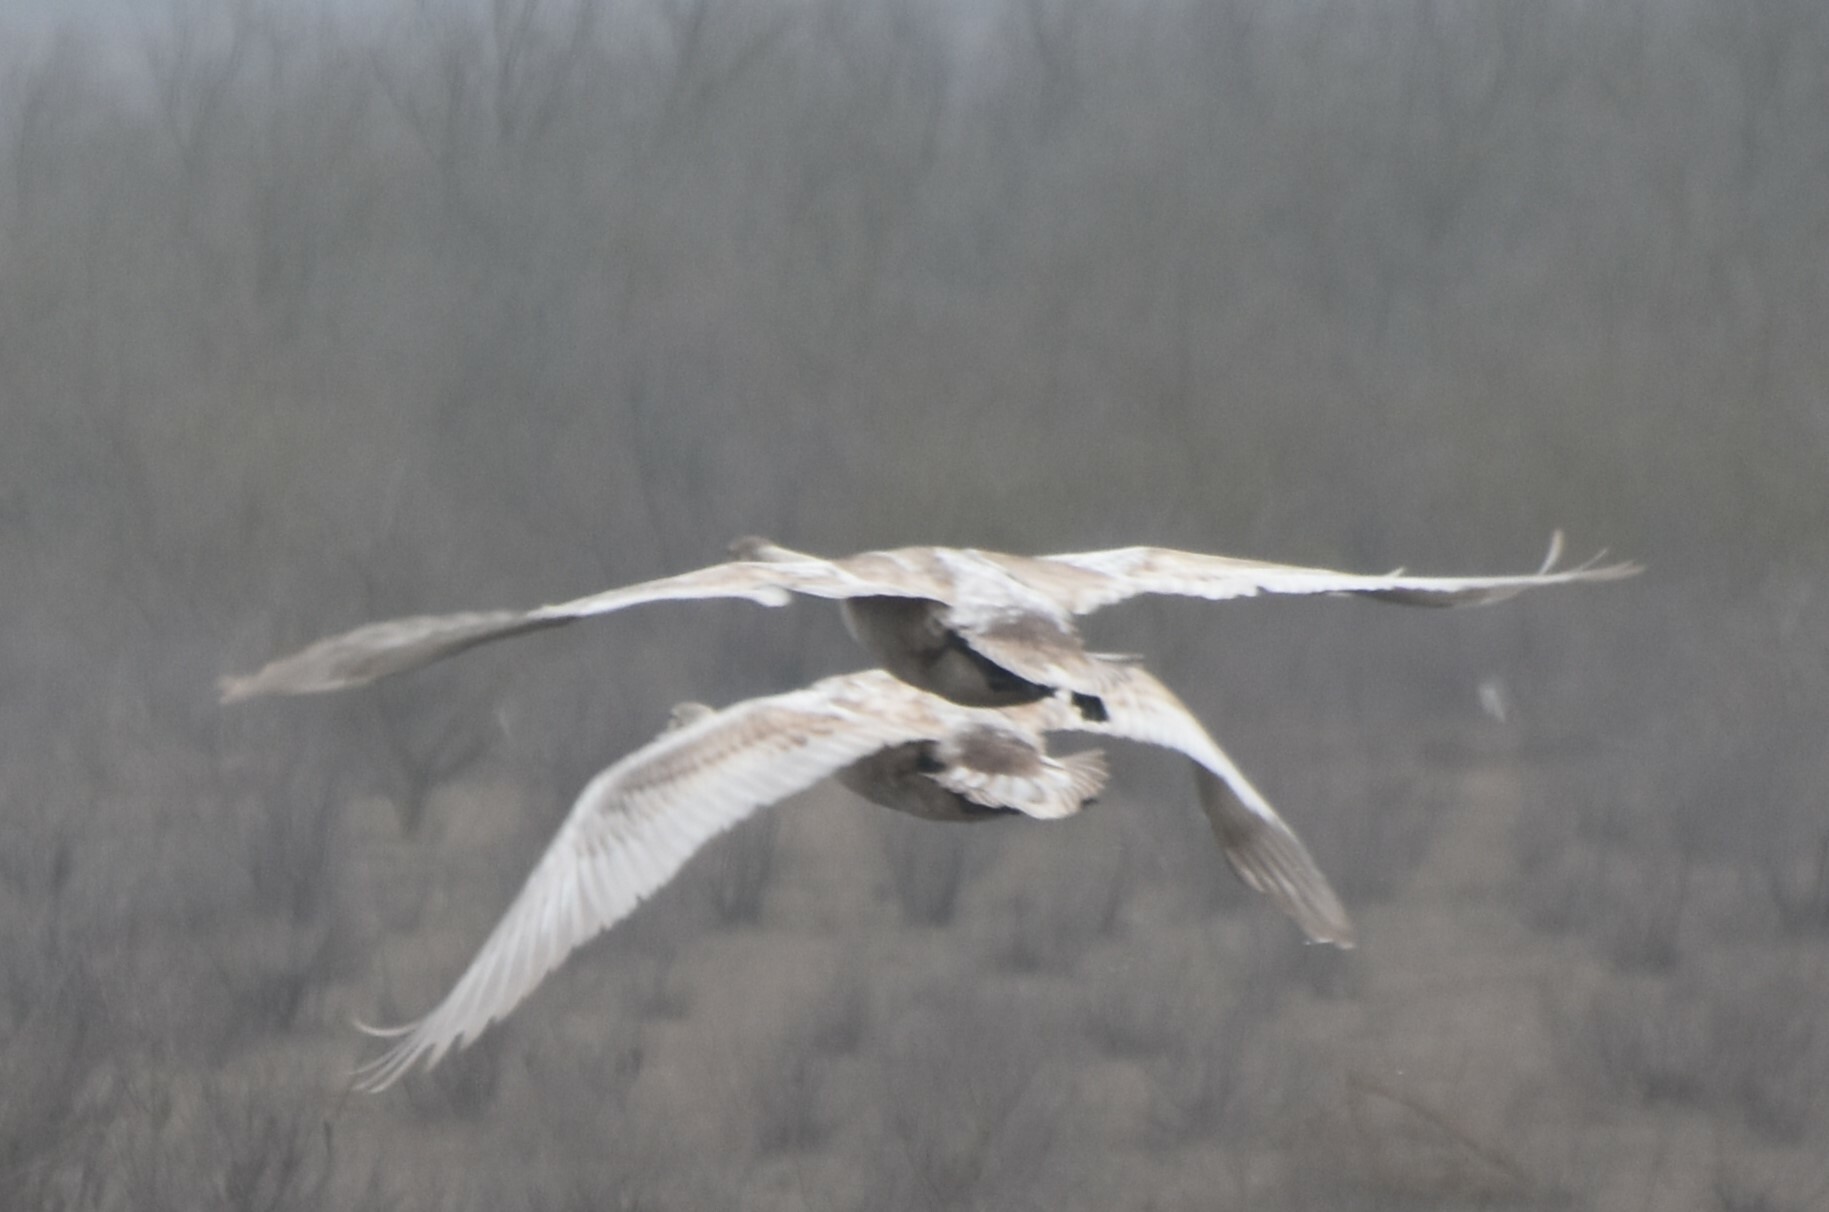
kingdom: Animalia
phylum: Chordata
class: Aves
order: Anseriformes
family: Anatidae
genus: Cygnus
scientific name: Cygnus olor
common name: Mute swan
